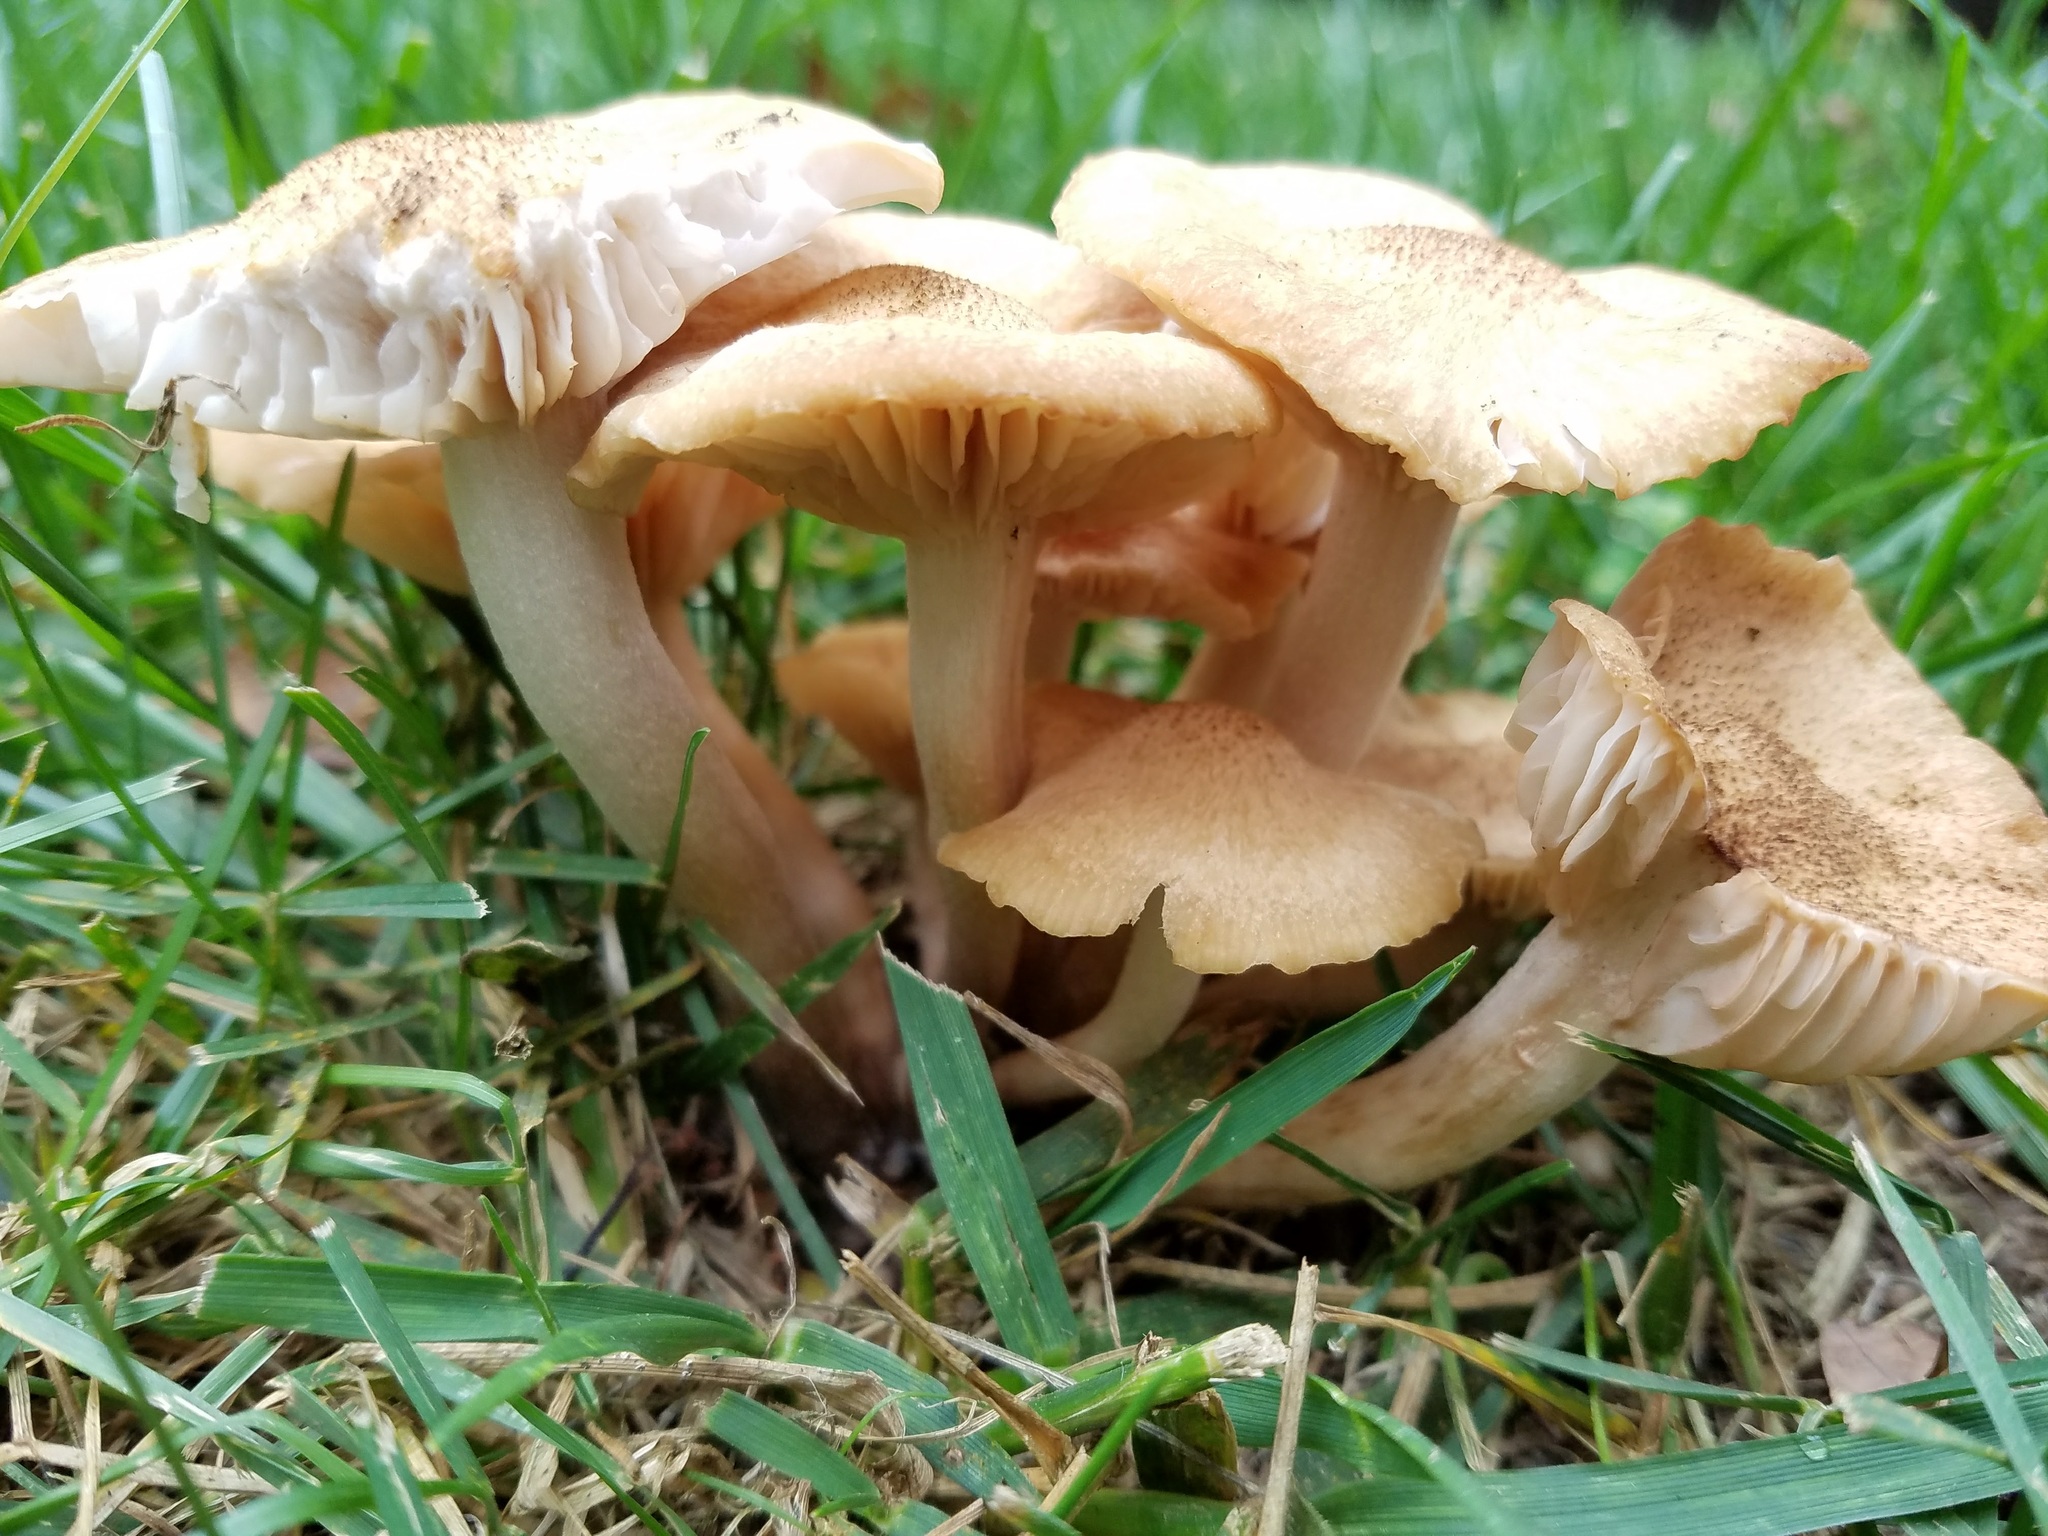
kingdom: Fungi
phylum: Basidiomycota
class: Agaricomycetes
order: Agaricales
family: Physalacriaceae
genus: Desarmillaria
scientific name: Desarmillaria caespitosa
